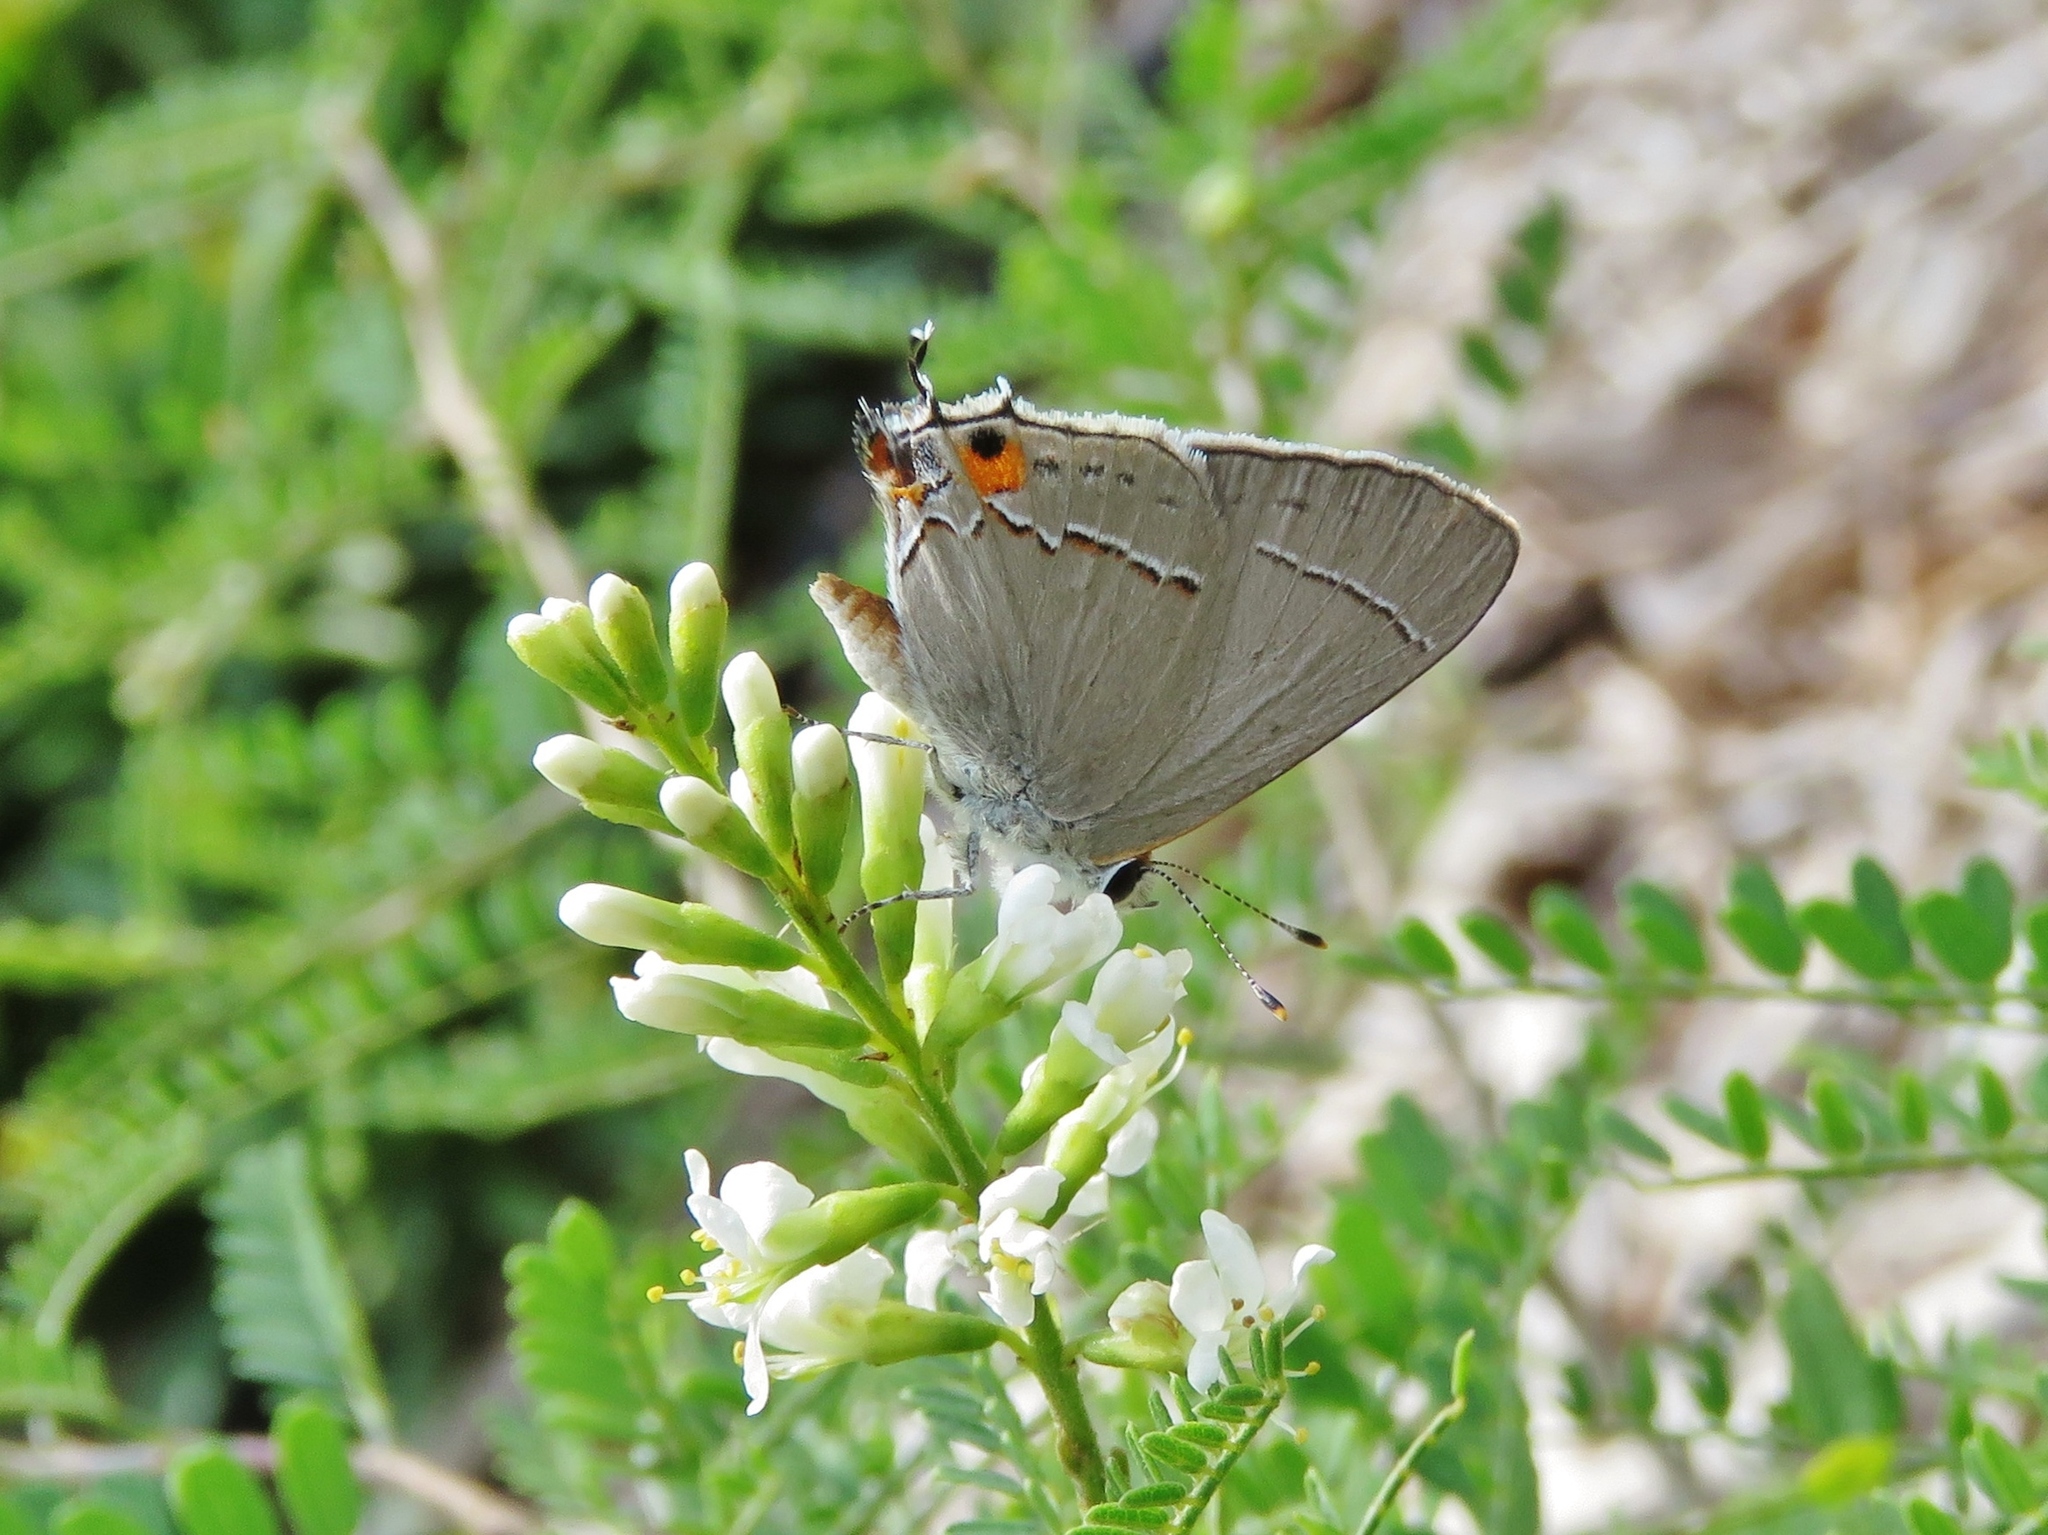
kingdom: Animalia
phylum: Arthropoda
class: Insecta
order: Lepidoptera
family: Lycaenidae
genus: Strymon
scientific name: Strymon melinus
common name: Gray hairstreak
